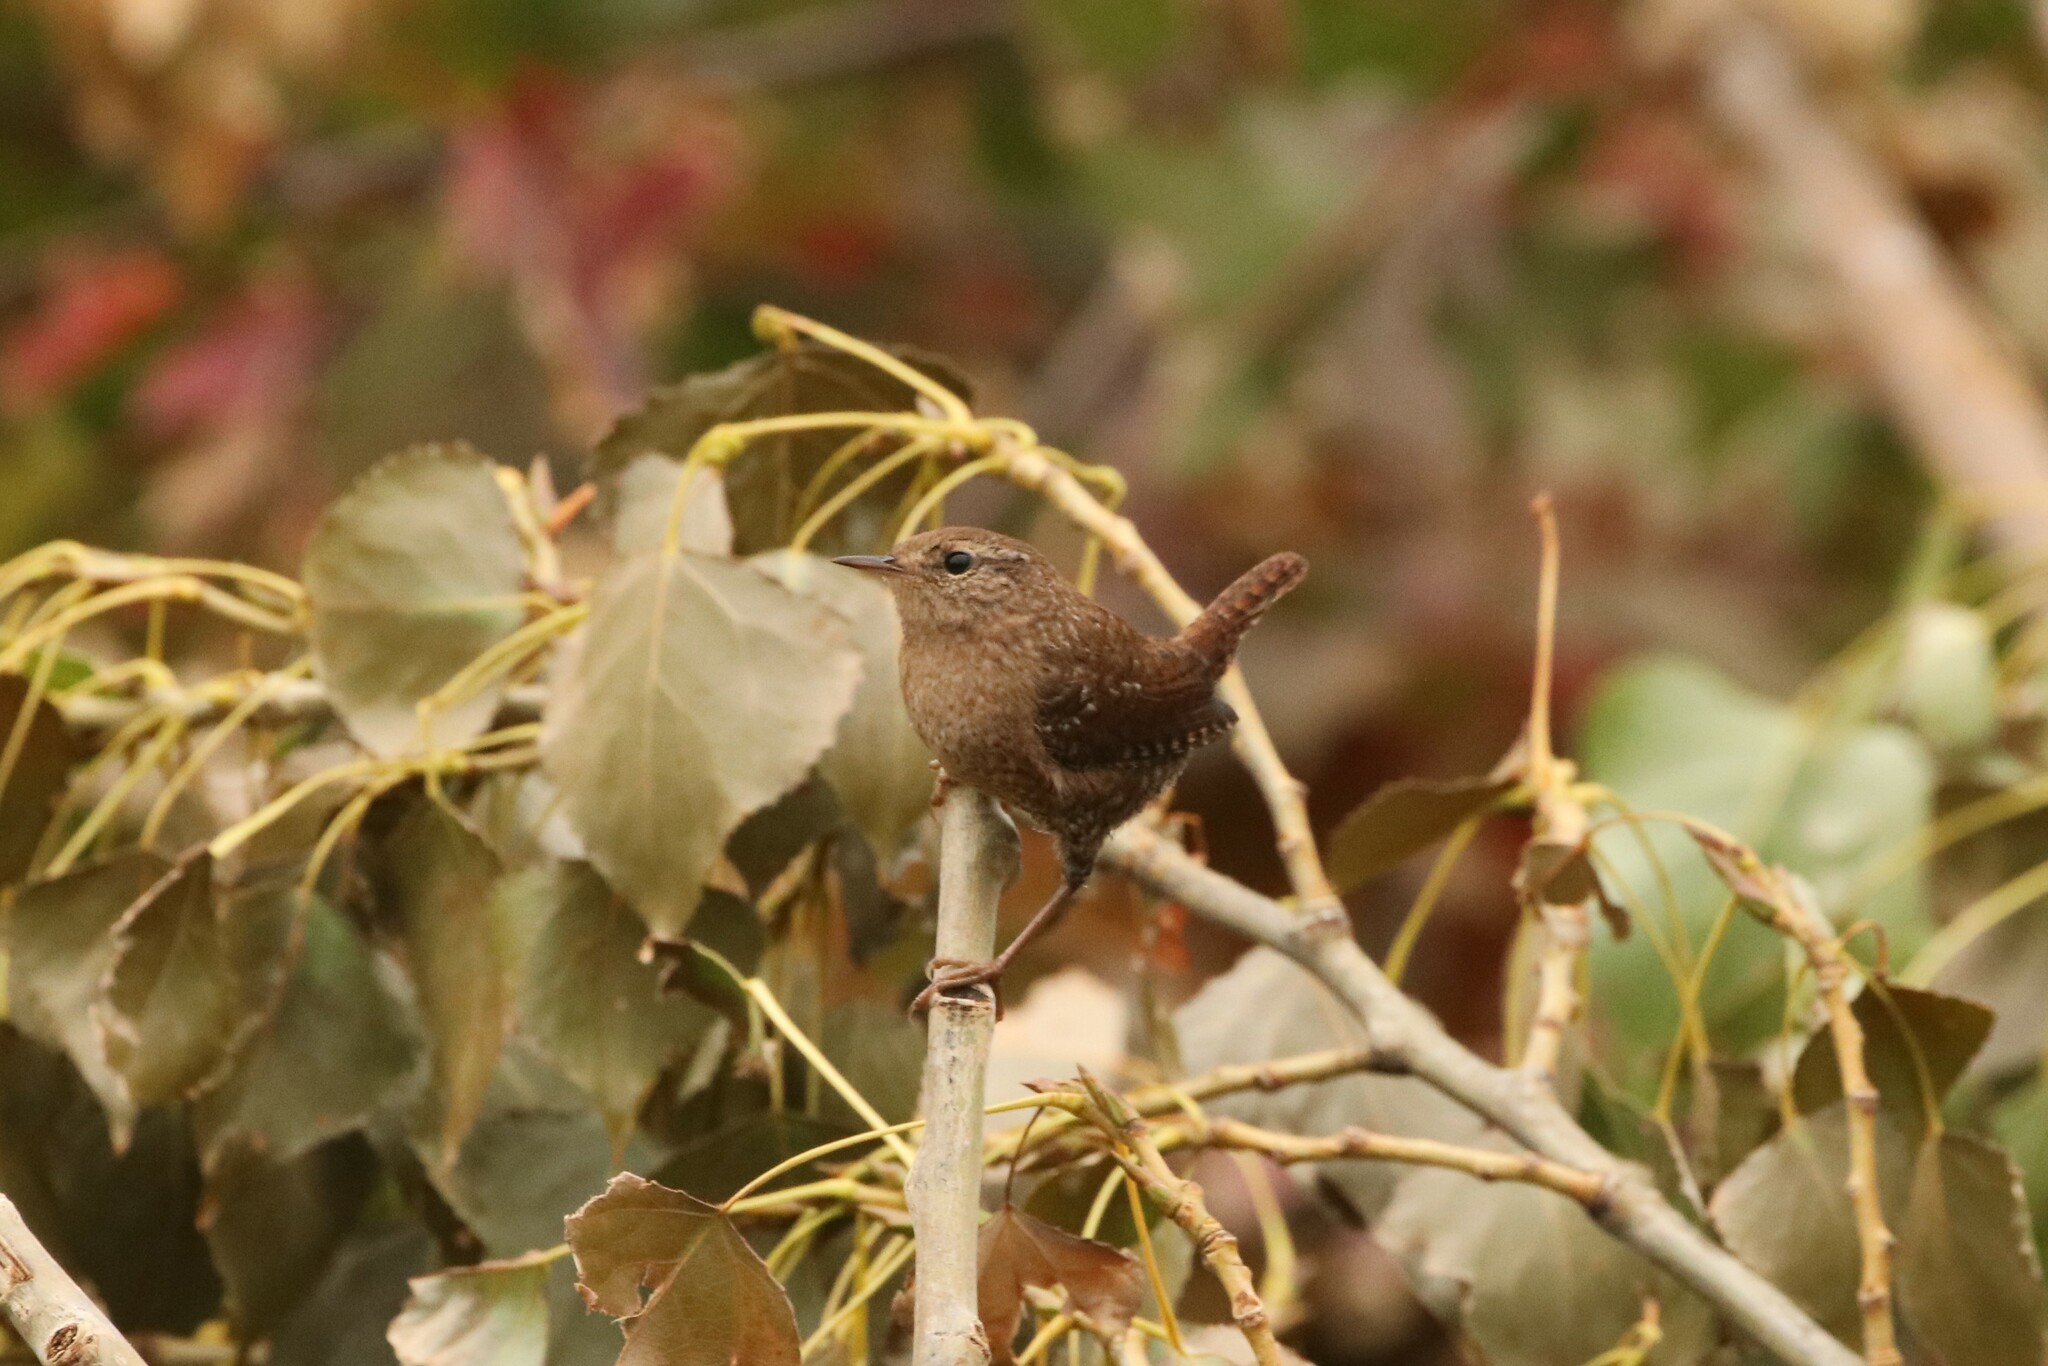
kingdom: Animalia
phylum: Chordata
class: Aves
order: Passeriformes
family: Troglodytidae
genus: Troglodytes
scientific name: Troglodytes hiemalis
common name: Winter wren
